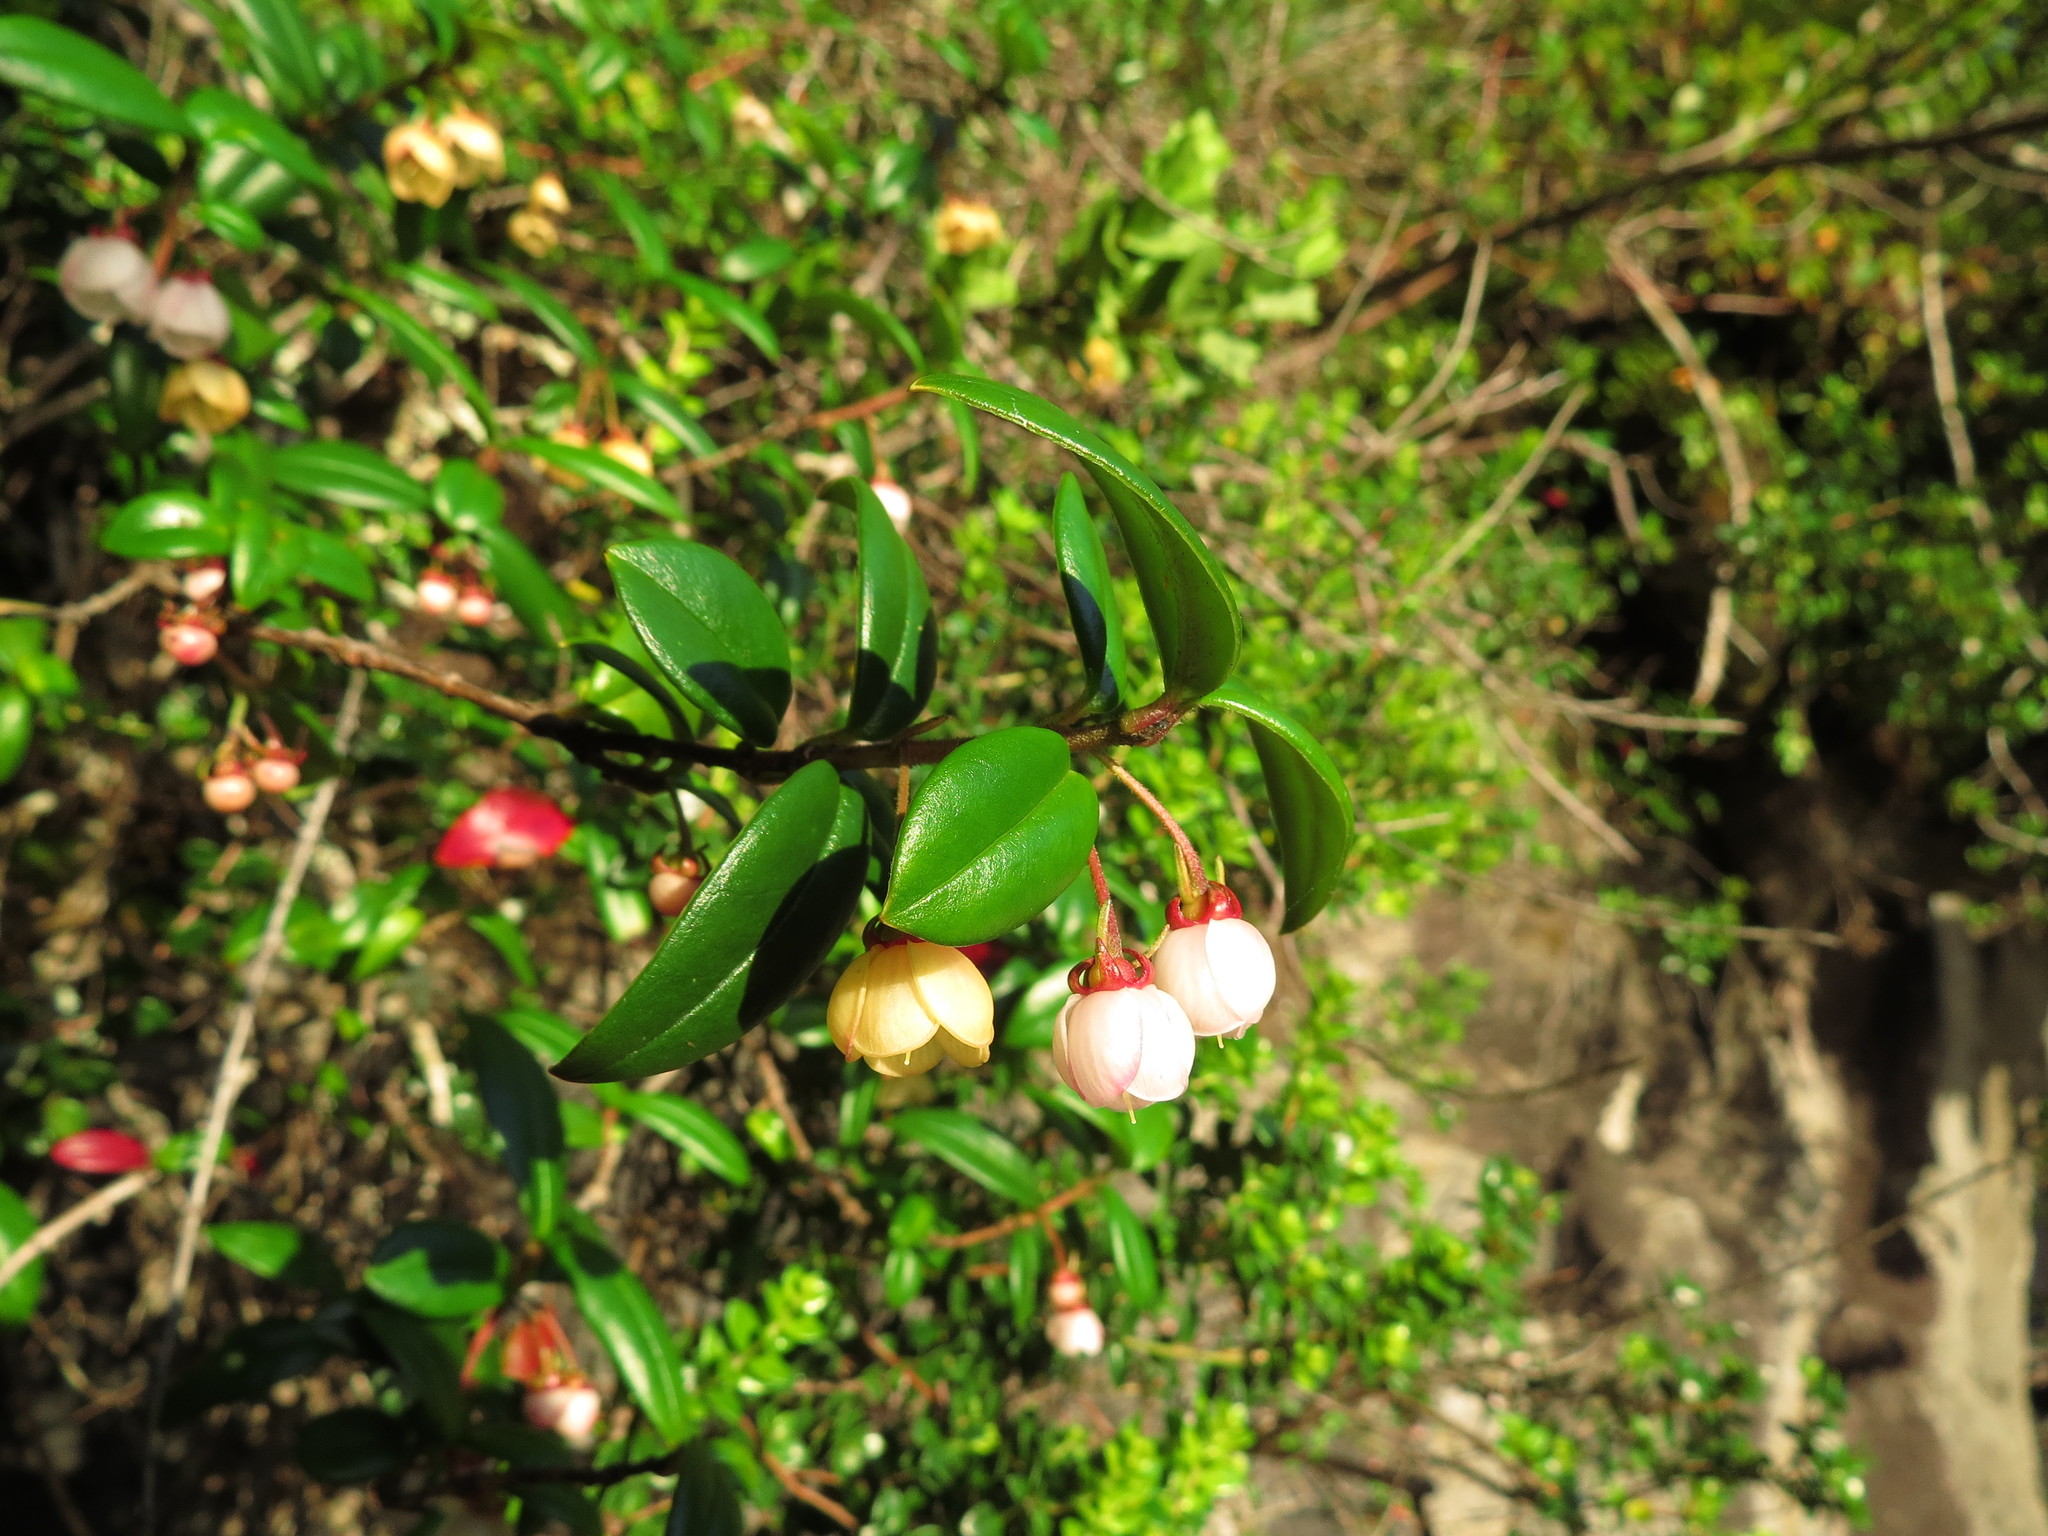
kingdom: Plantae
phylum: Tracheophyta
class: Magnoliopsida
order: Myrtales
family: Myrtaceae
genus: Ugni
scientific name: Ugni molinae
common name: Chilean-guava
